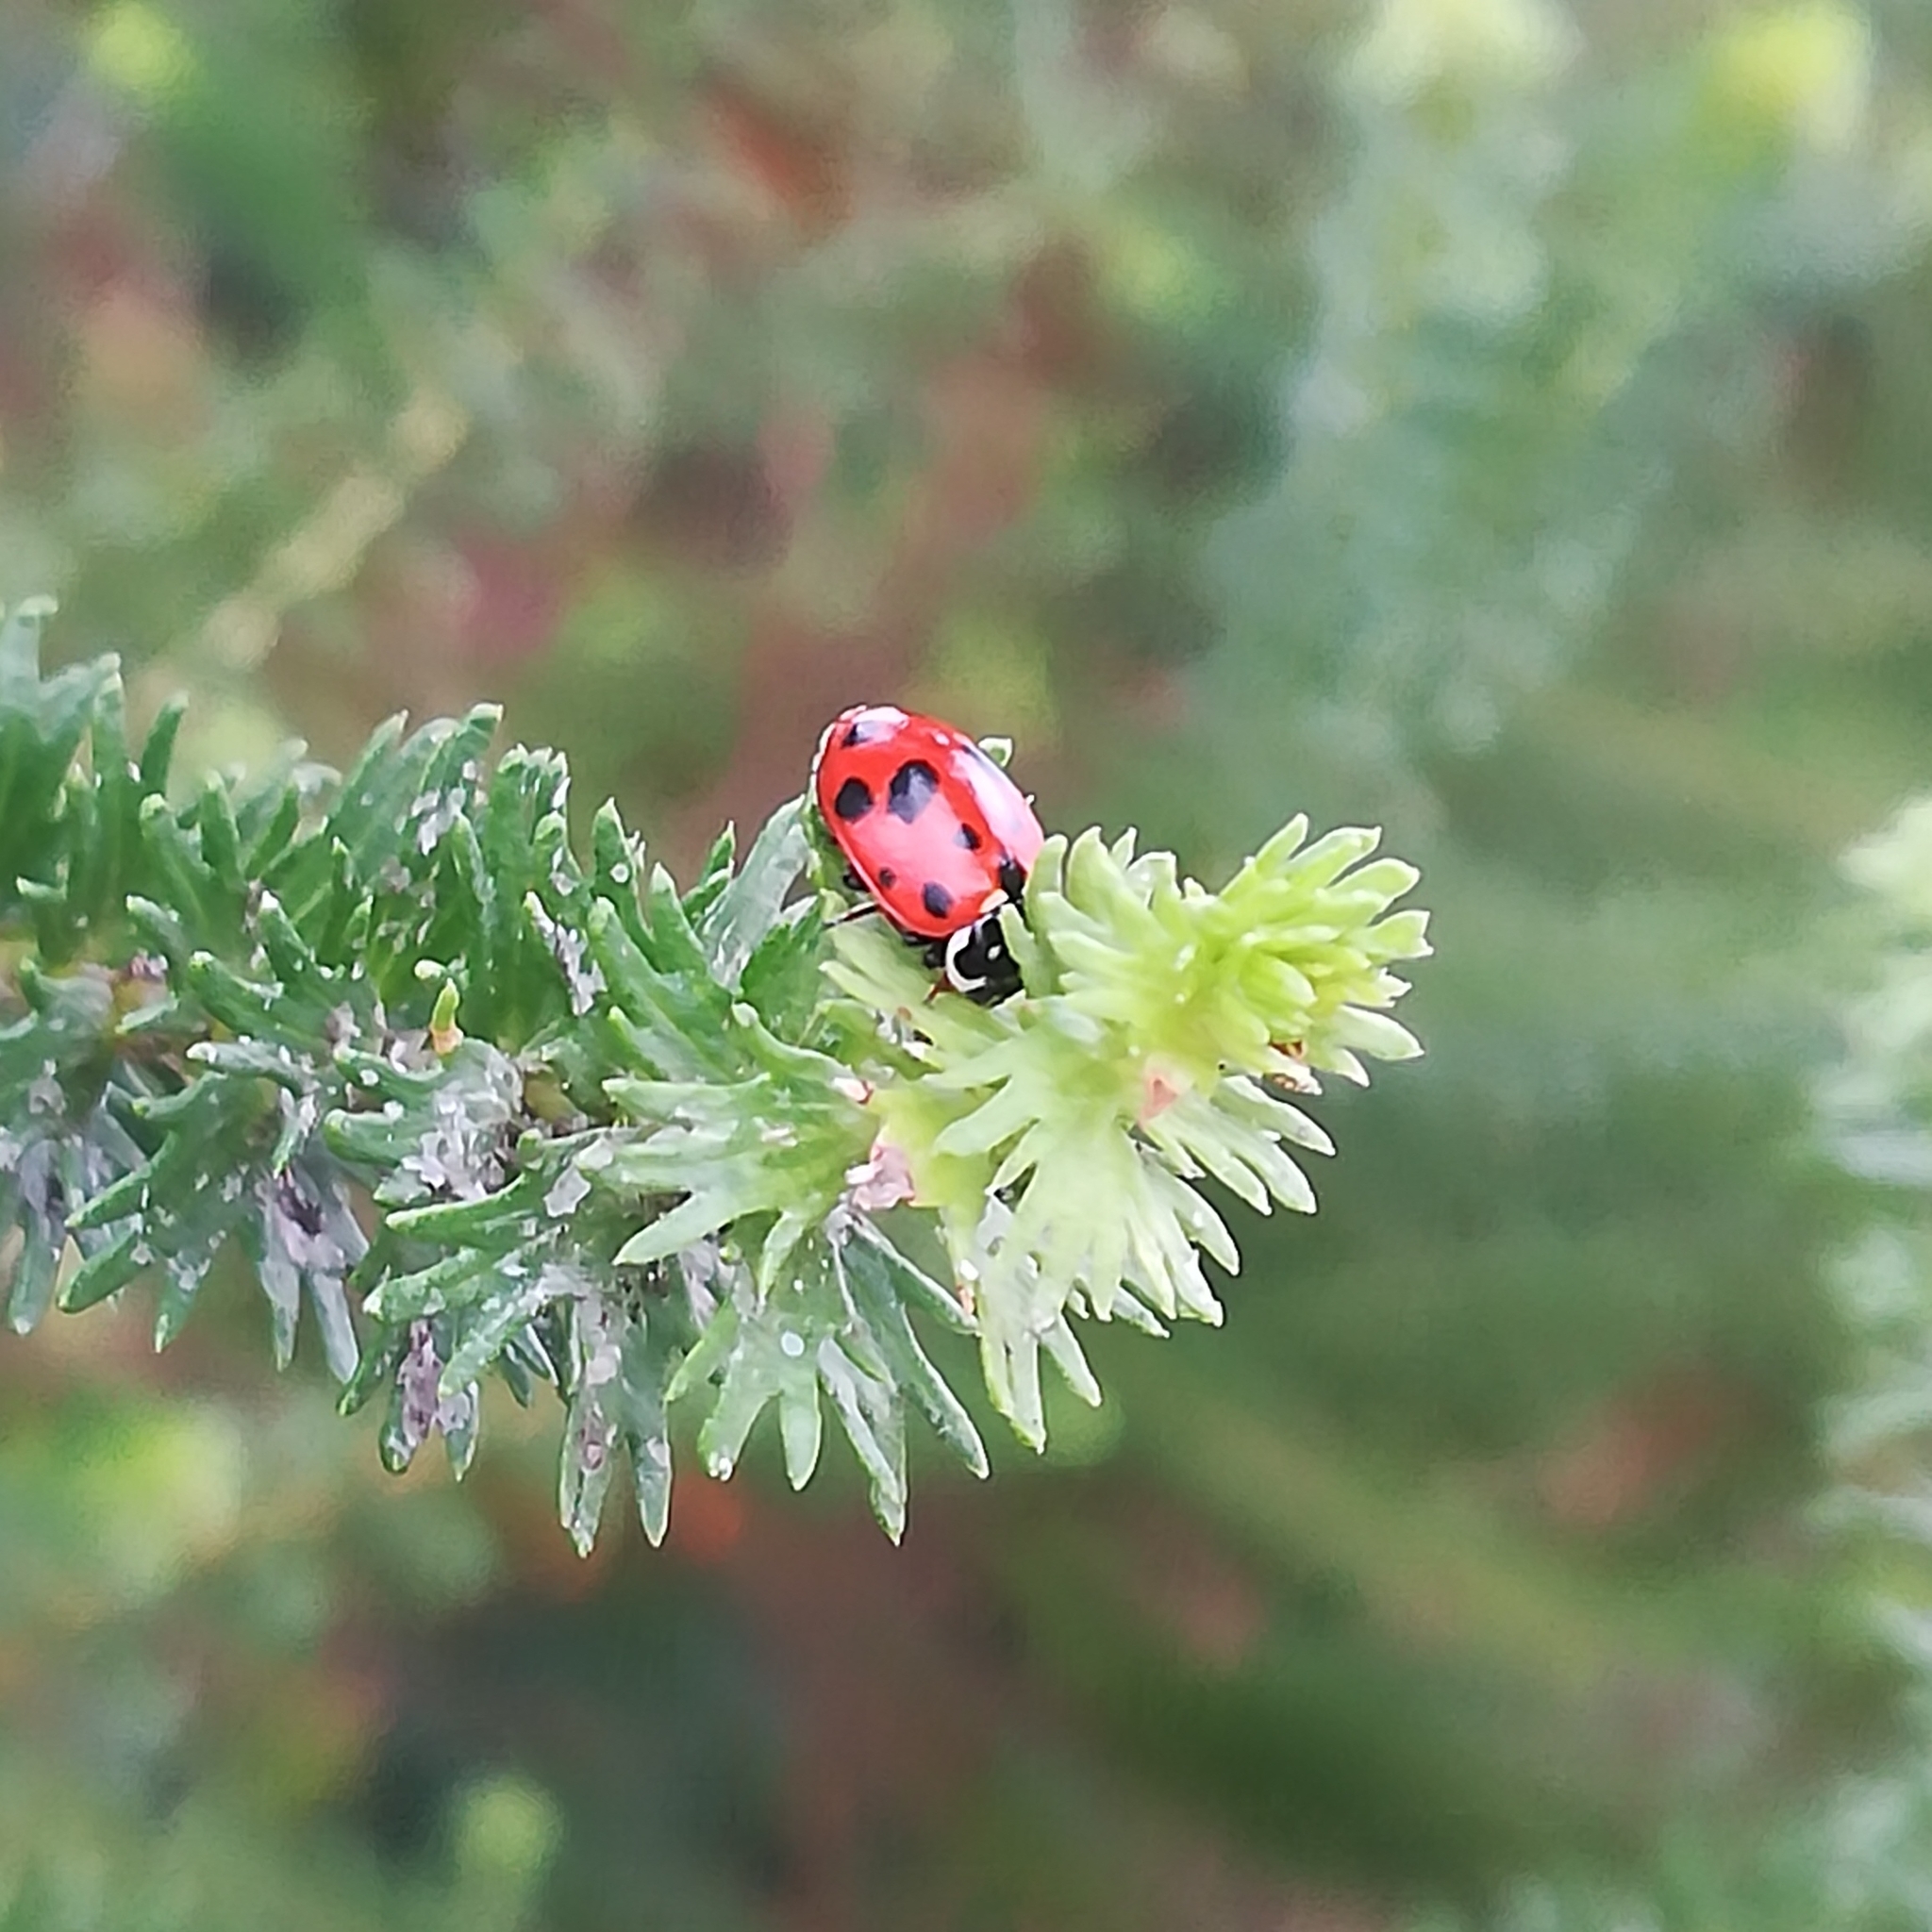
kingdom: Animalia
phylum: Arthropoda
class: Insecta
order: Coleoptera
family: Coccinellidae
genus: Hippodamia
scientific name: Hippodamia variegata
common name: Ladybird beetle
